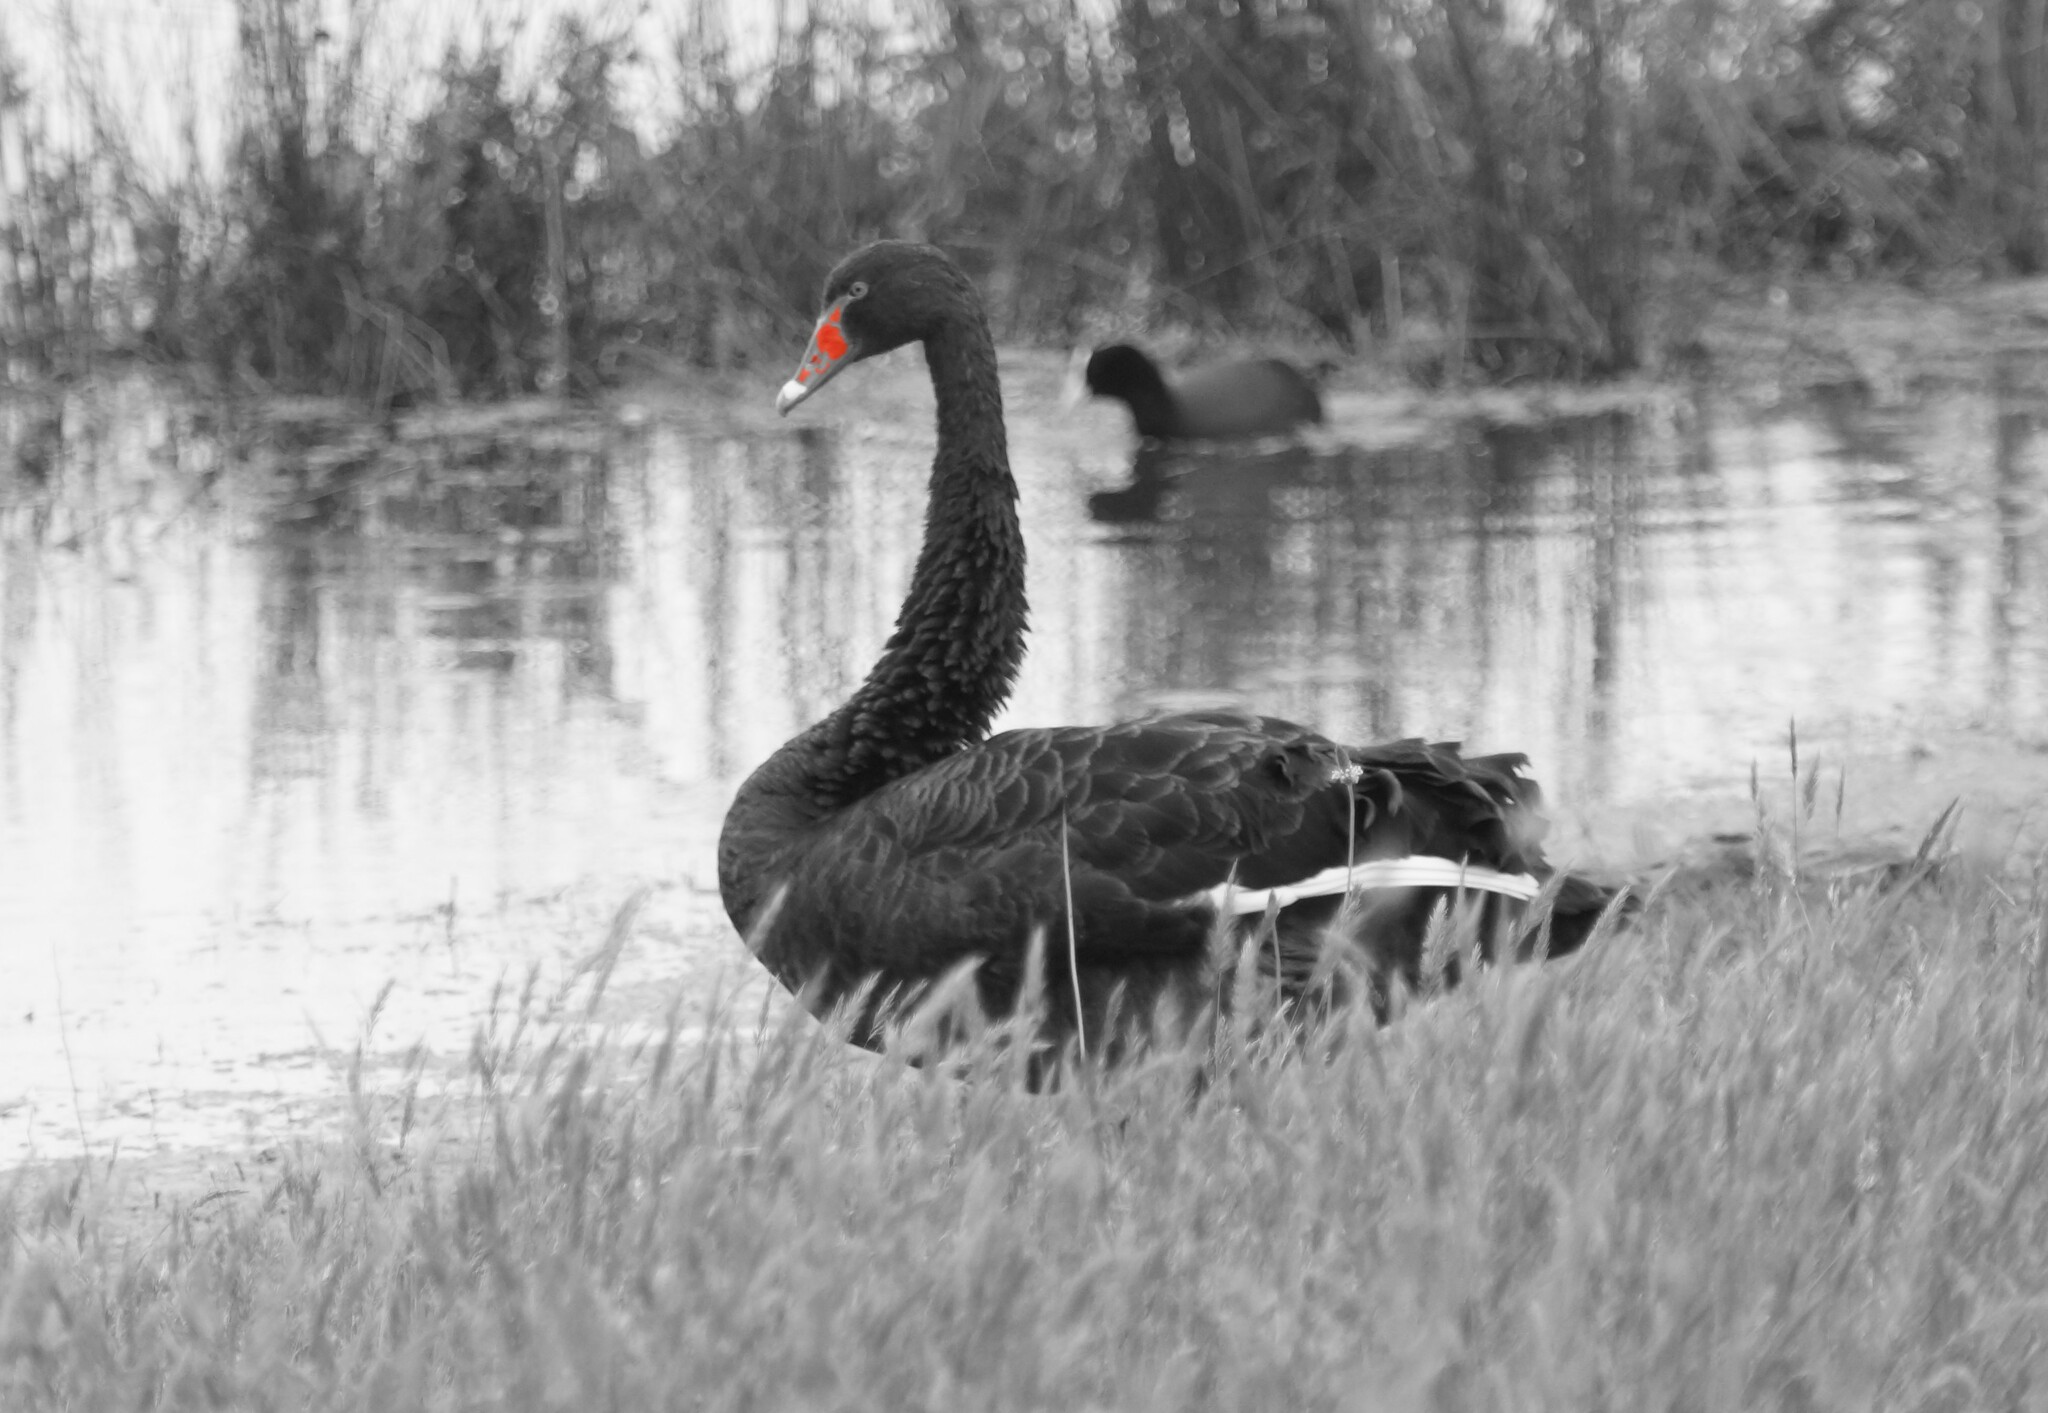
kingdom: Animalia
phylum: Chordata
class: Aves
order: Anseriformes
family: Anatidae
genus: Cygnus
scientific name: Cygnus atratus
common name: Black swan
